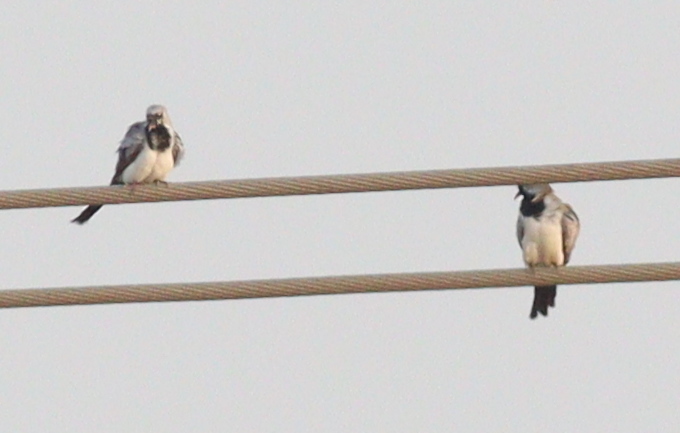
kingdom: Animalia
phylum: Chordata
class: Aves
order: Columbiformes
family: Columbidae
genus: Oena
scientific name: Oena capensis
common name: Namaqua dove
